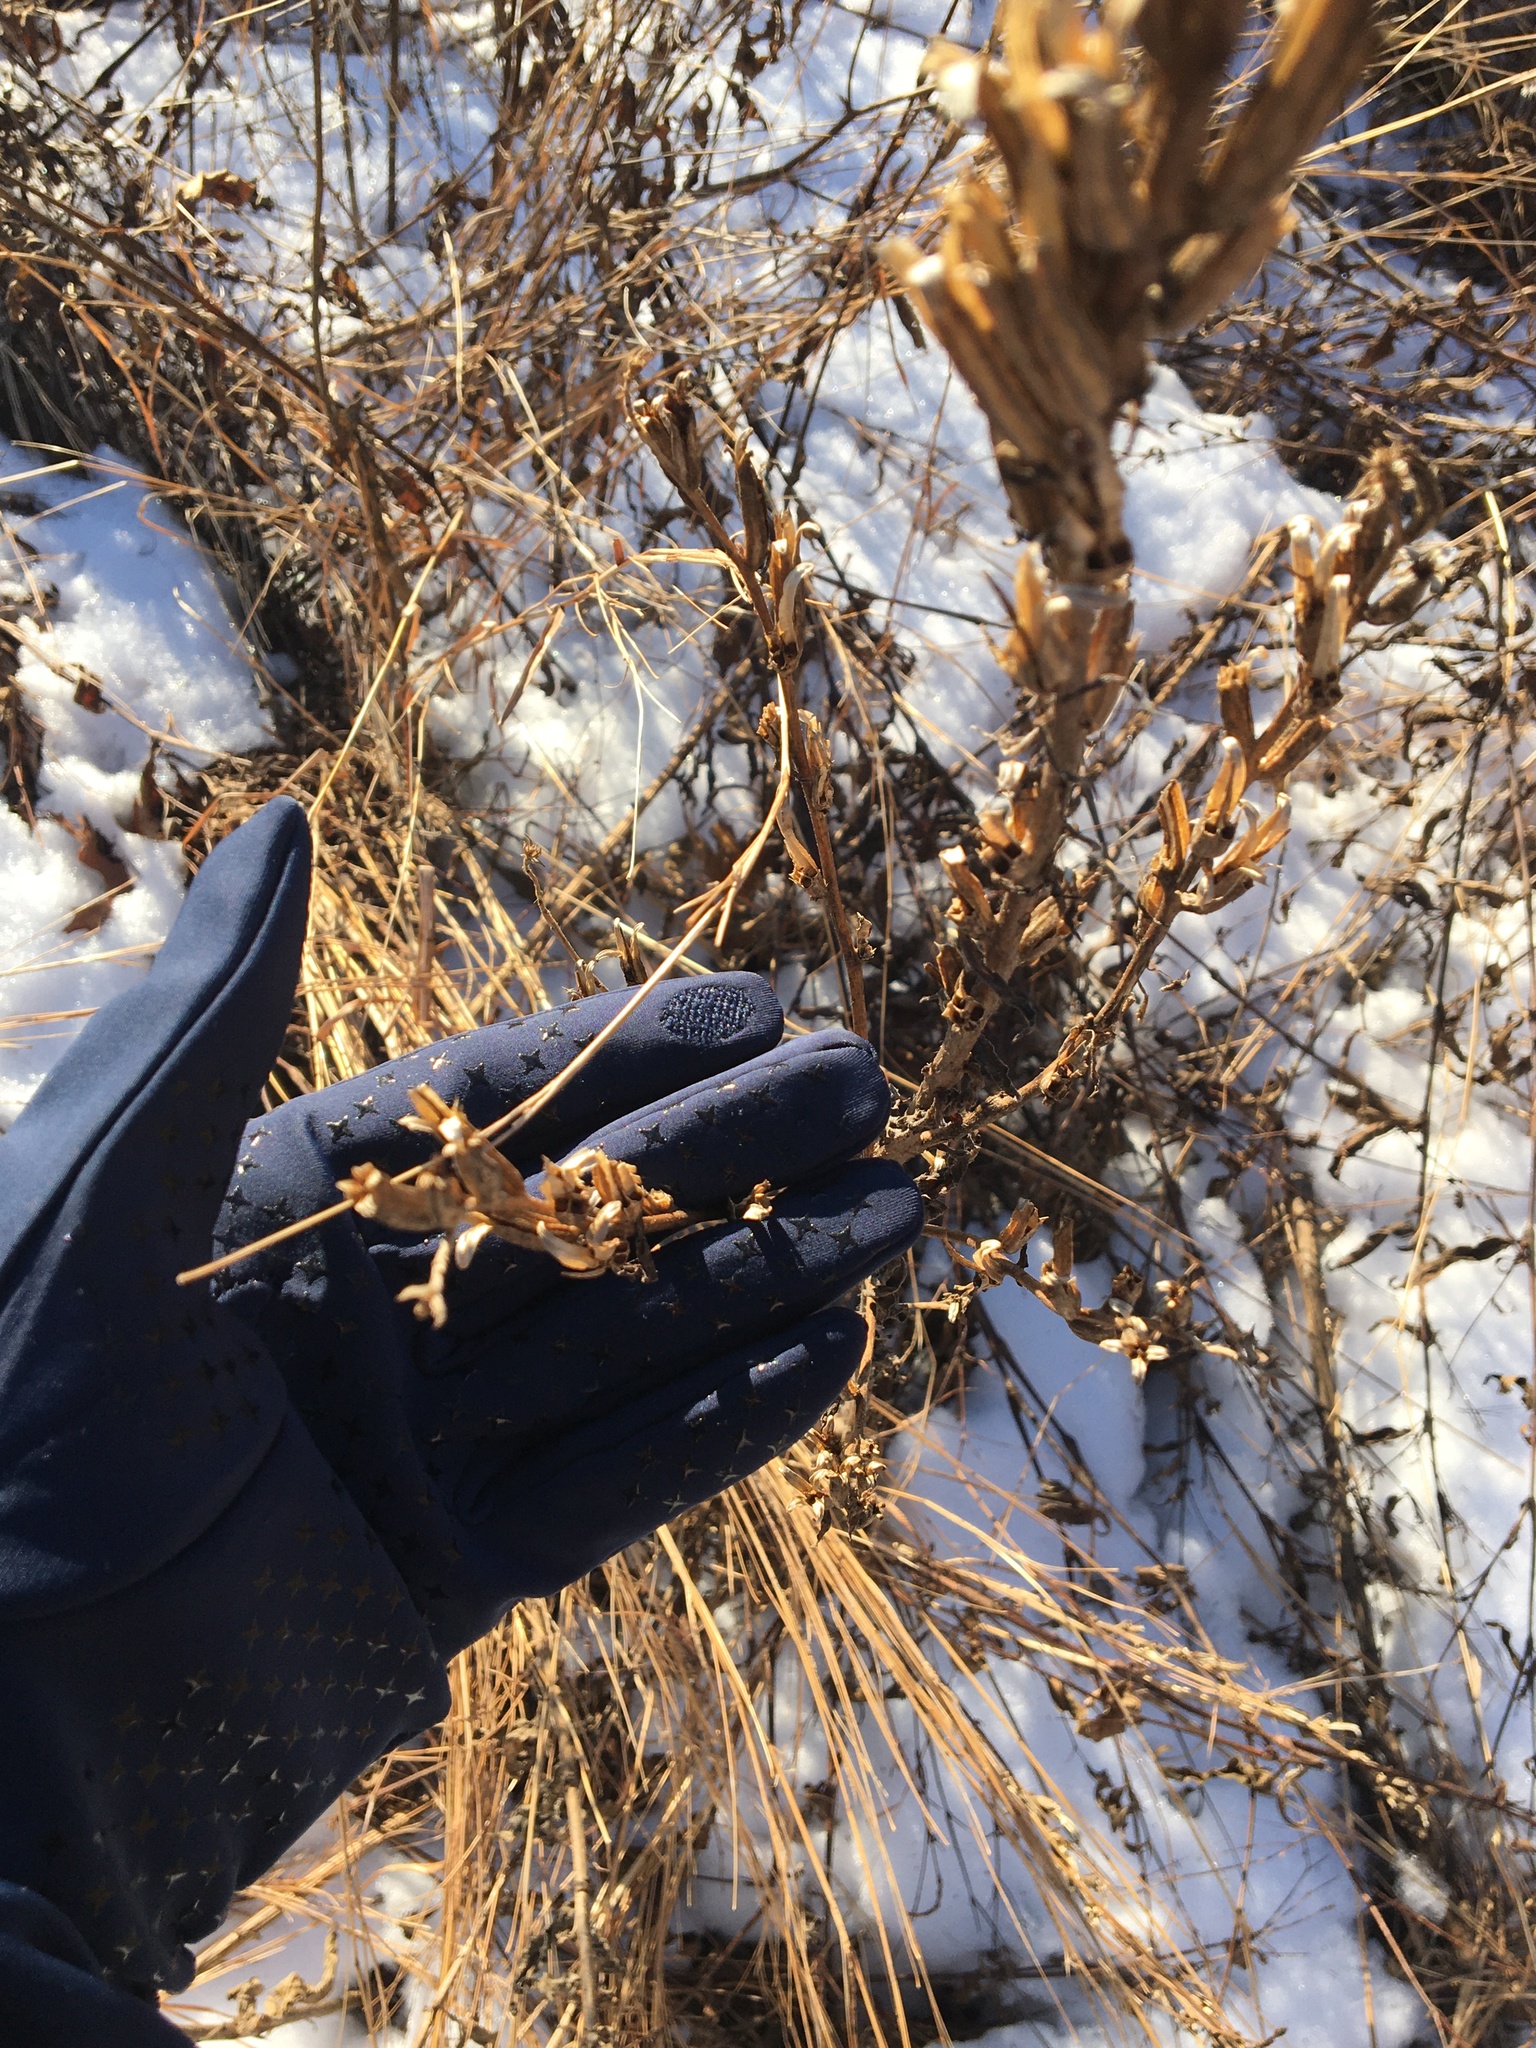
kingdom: Plantae
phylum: Tracheophyta
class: Magnoliopsida
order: Myrtales
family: Onagraceae
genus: Oenothera
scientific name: Oenothera biennis
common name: Common evening-primrose
